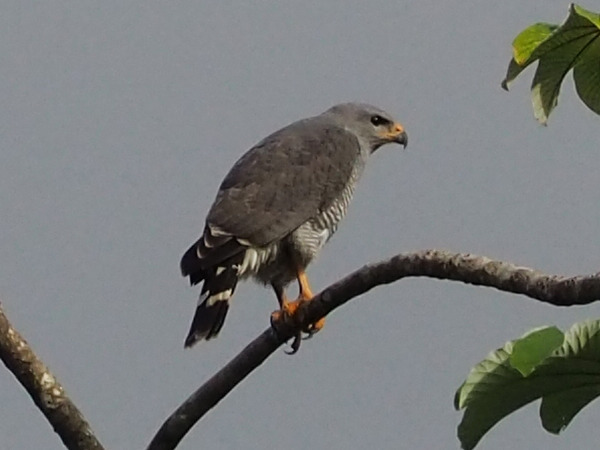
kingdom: Animalia
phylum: Chordata
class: Aves
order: Accipitriformes
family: Accipitridae
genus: Buteo
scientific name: Buteo nitidus
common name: Grey-lined hawk
